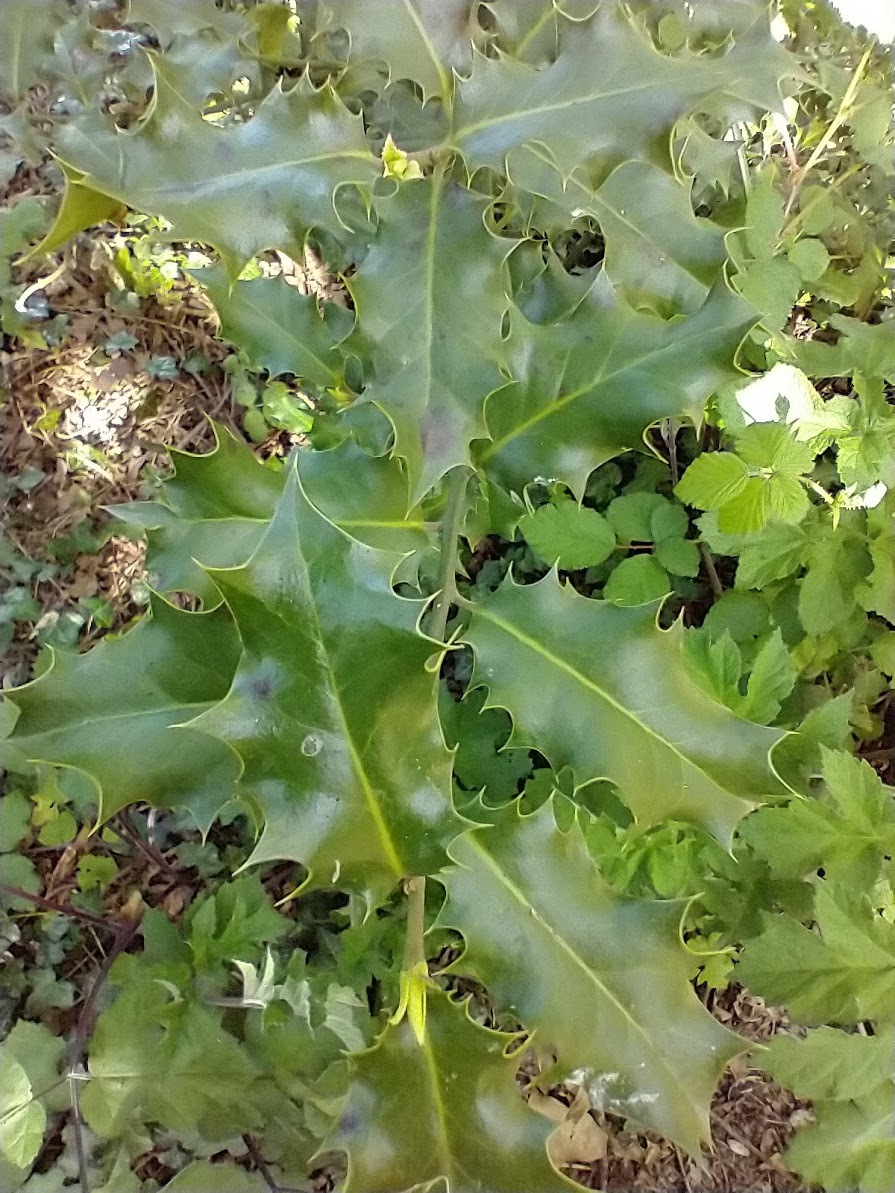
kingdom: Plantae
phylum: Tracheophyta
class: Magnoliopsida
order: Aquifoliales
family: Aquifoliaceae
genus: Ilex
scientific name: Ilex aquifolium
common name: English holly
